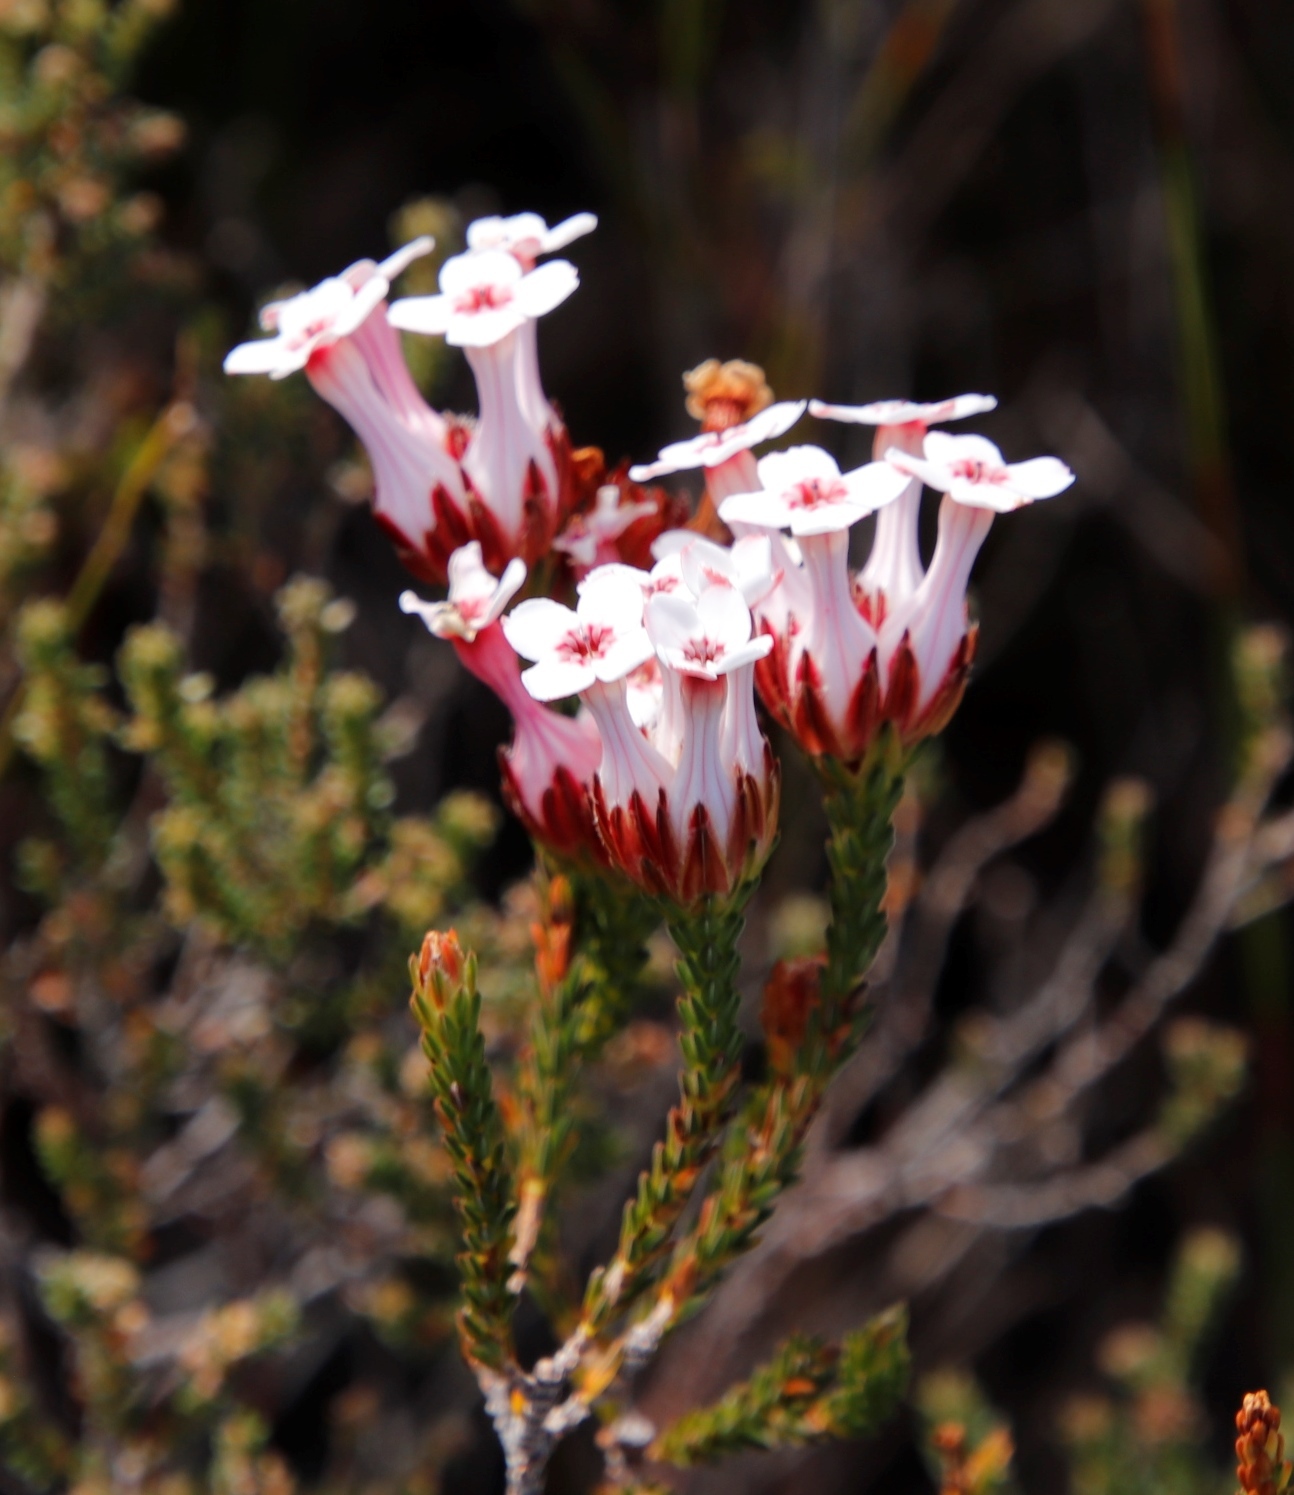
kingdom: Plantae
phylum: Tracheophyta
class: Magnoliopsida
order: Ericales
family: Ericaceae
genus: Erica
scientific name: Erica ampullacea
